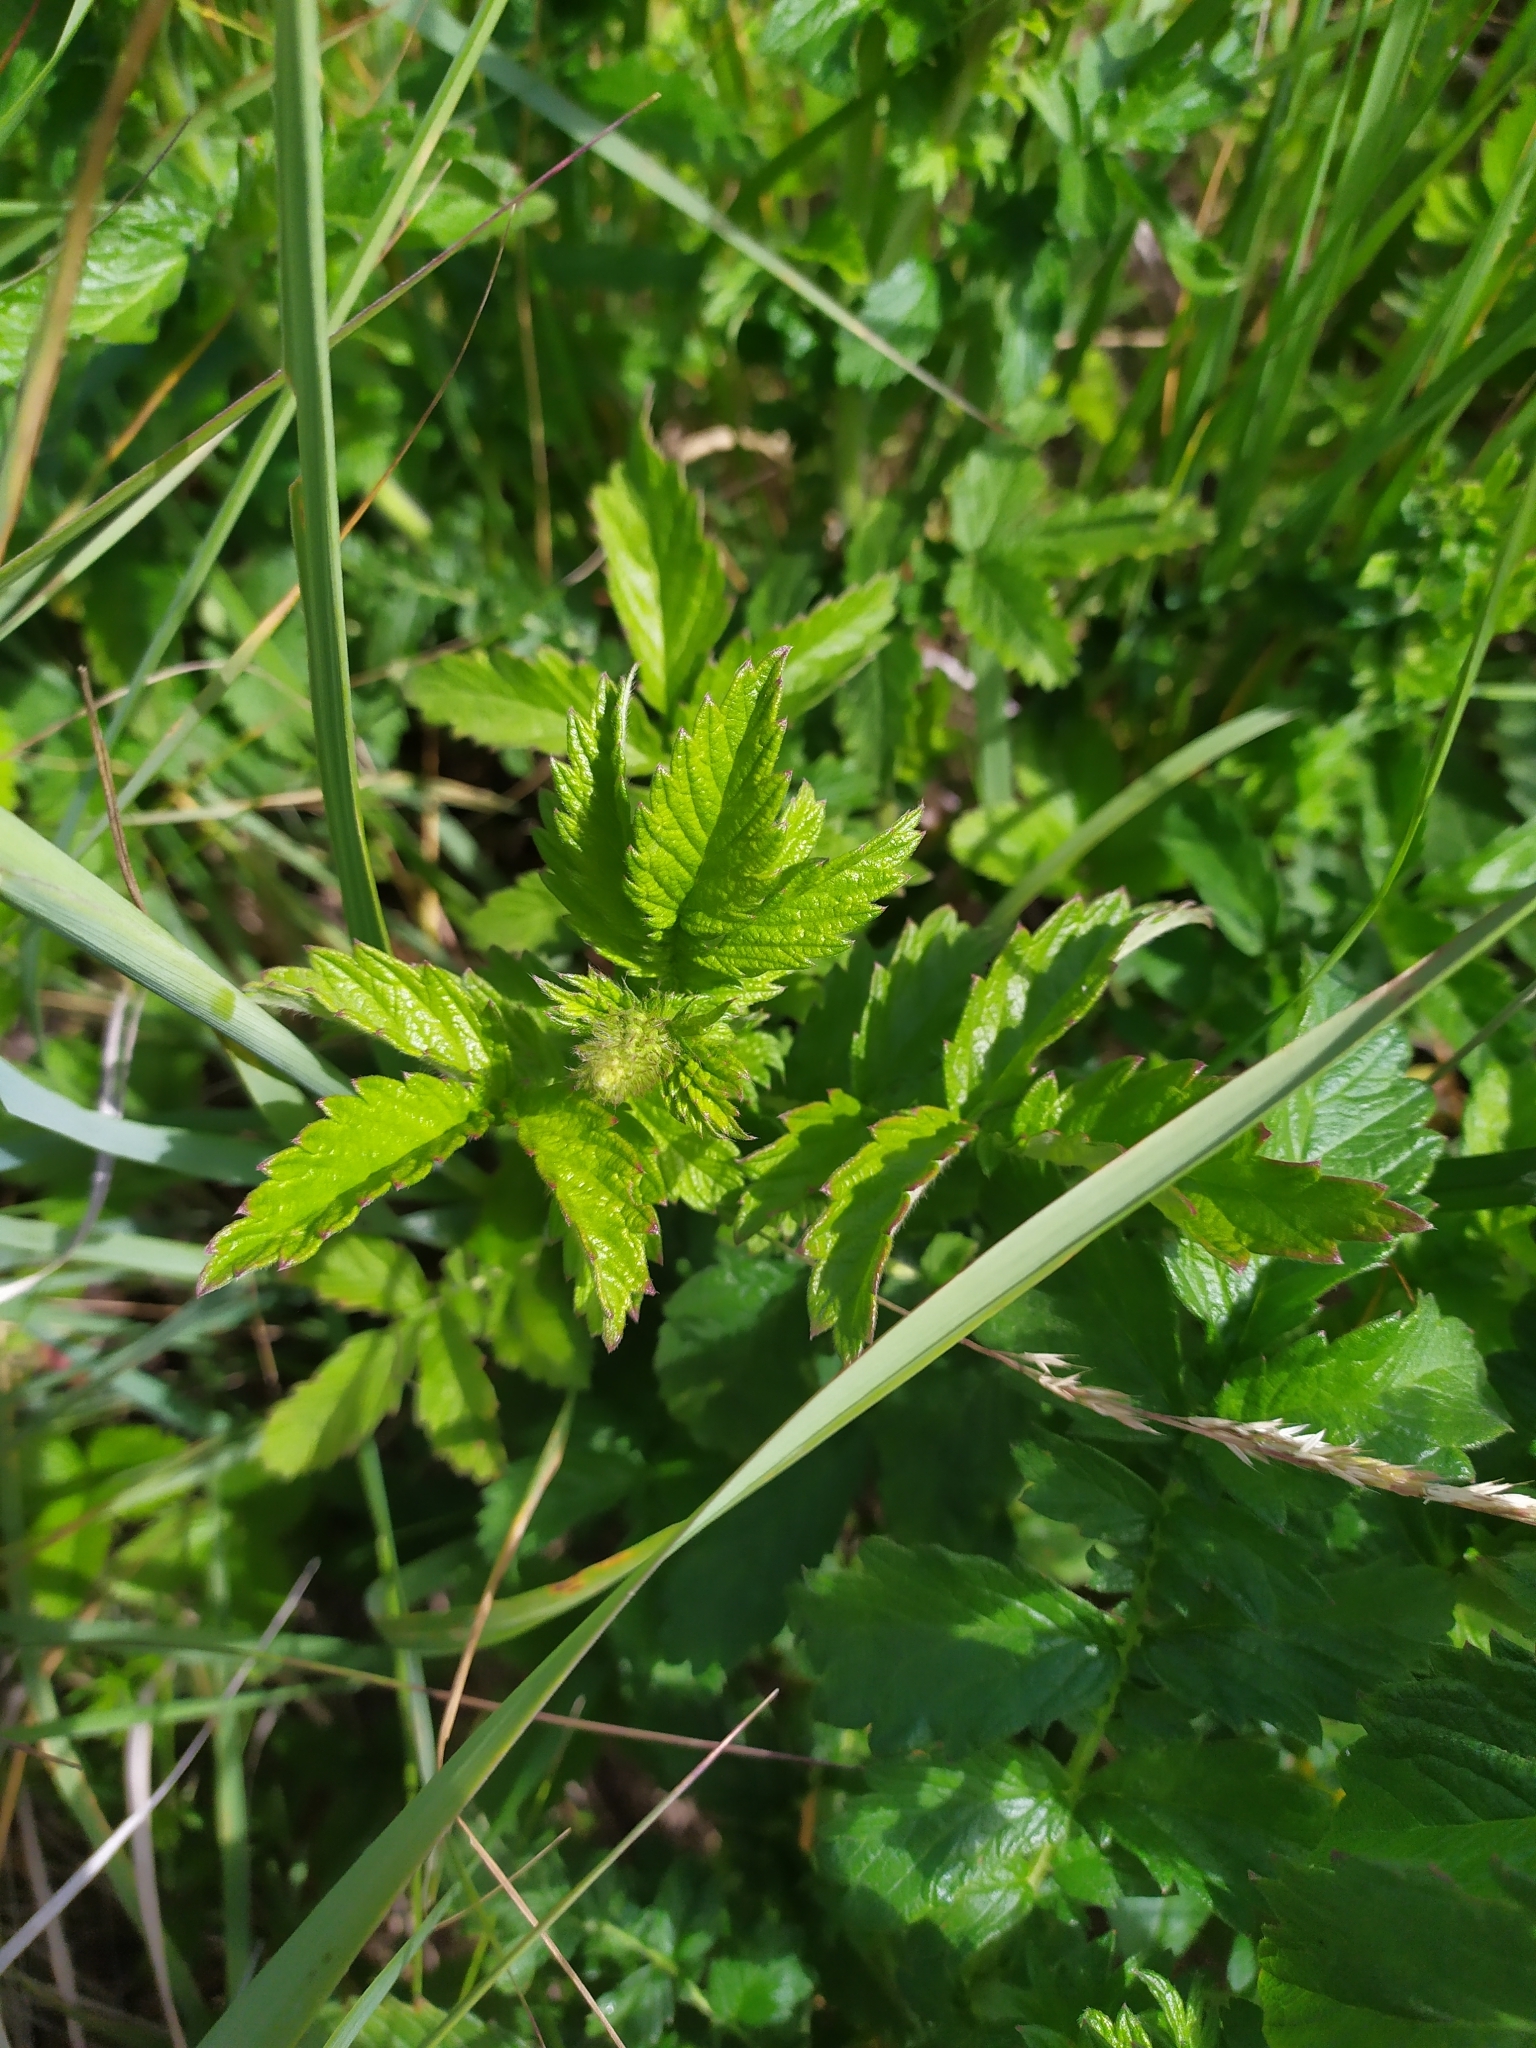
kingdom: Plantae
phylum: Tracheophyta
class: Magnoliopsida
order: Rosales
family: Rosaceae
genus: Agrimonia
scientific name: Agrimonia eupatoria
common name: Agrimony
